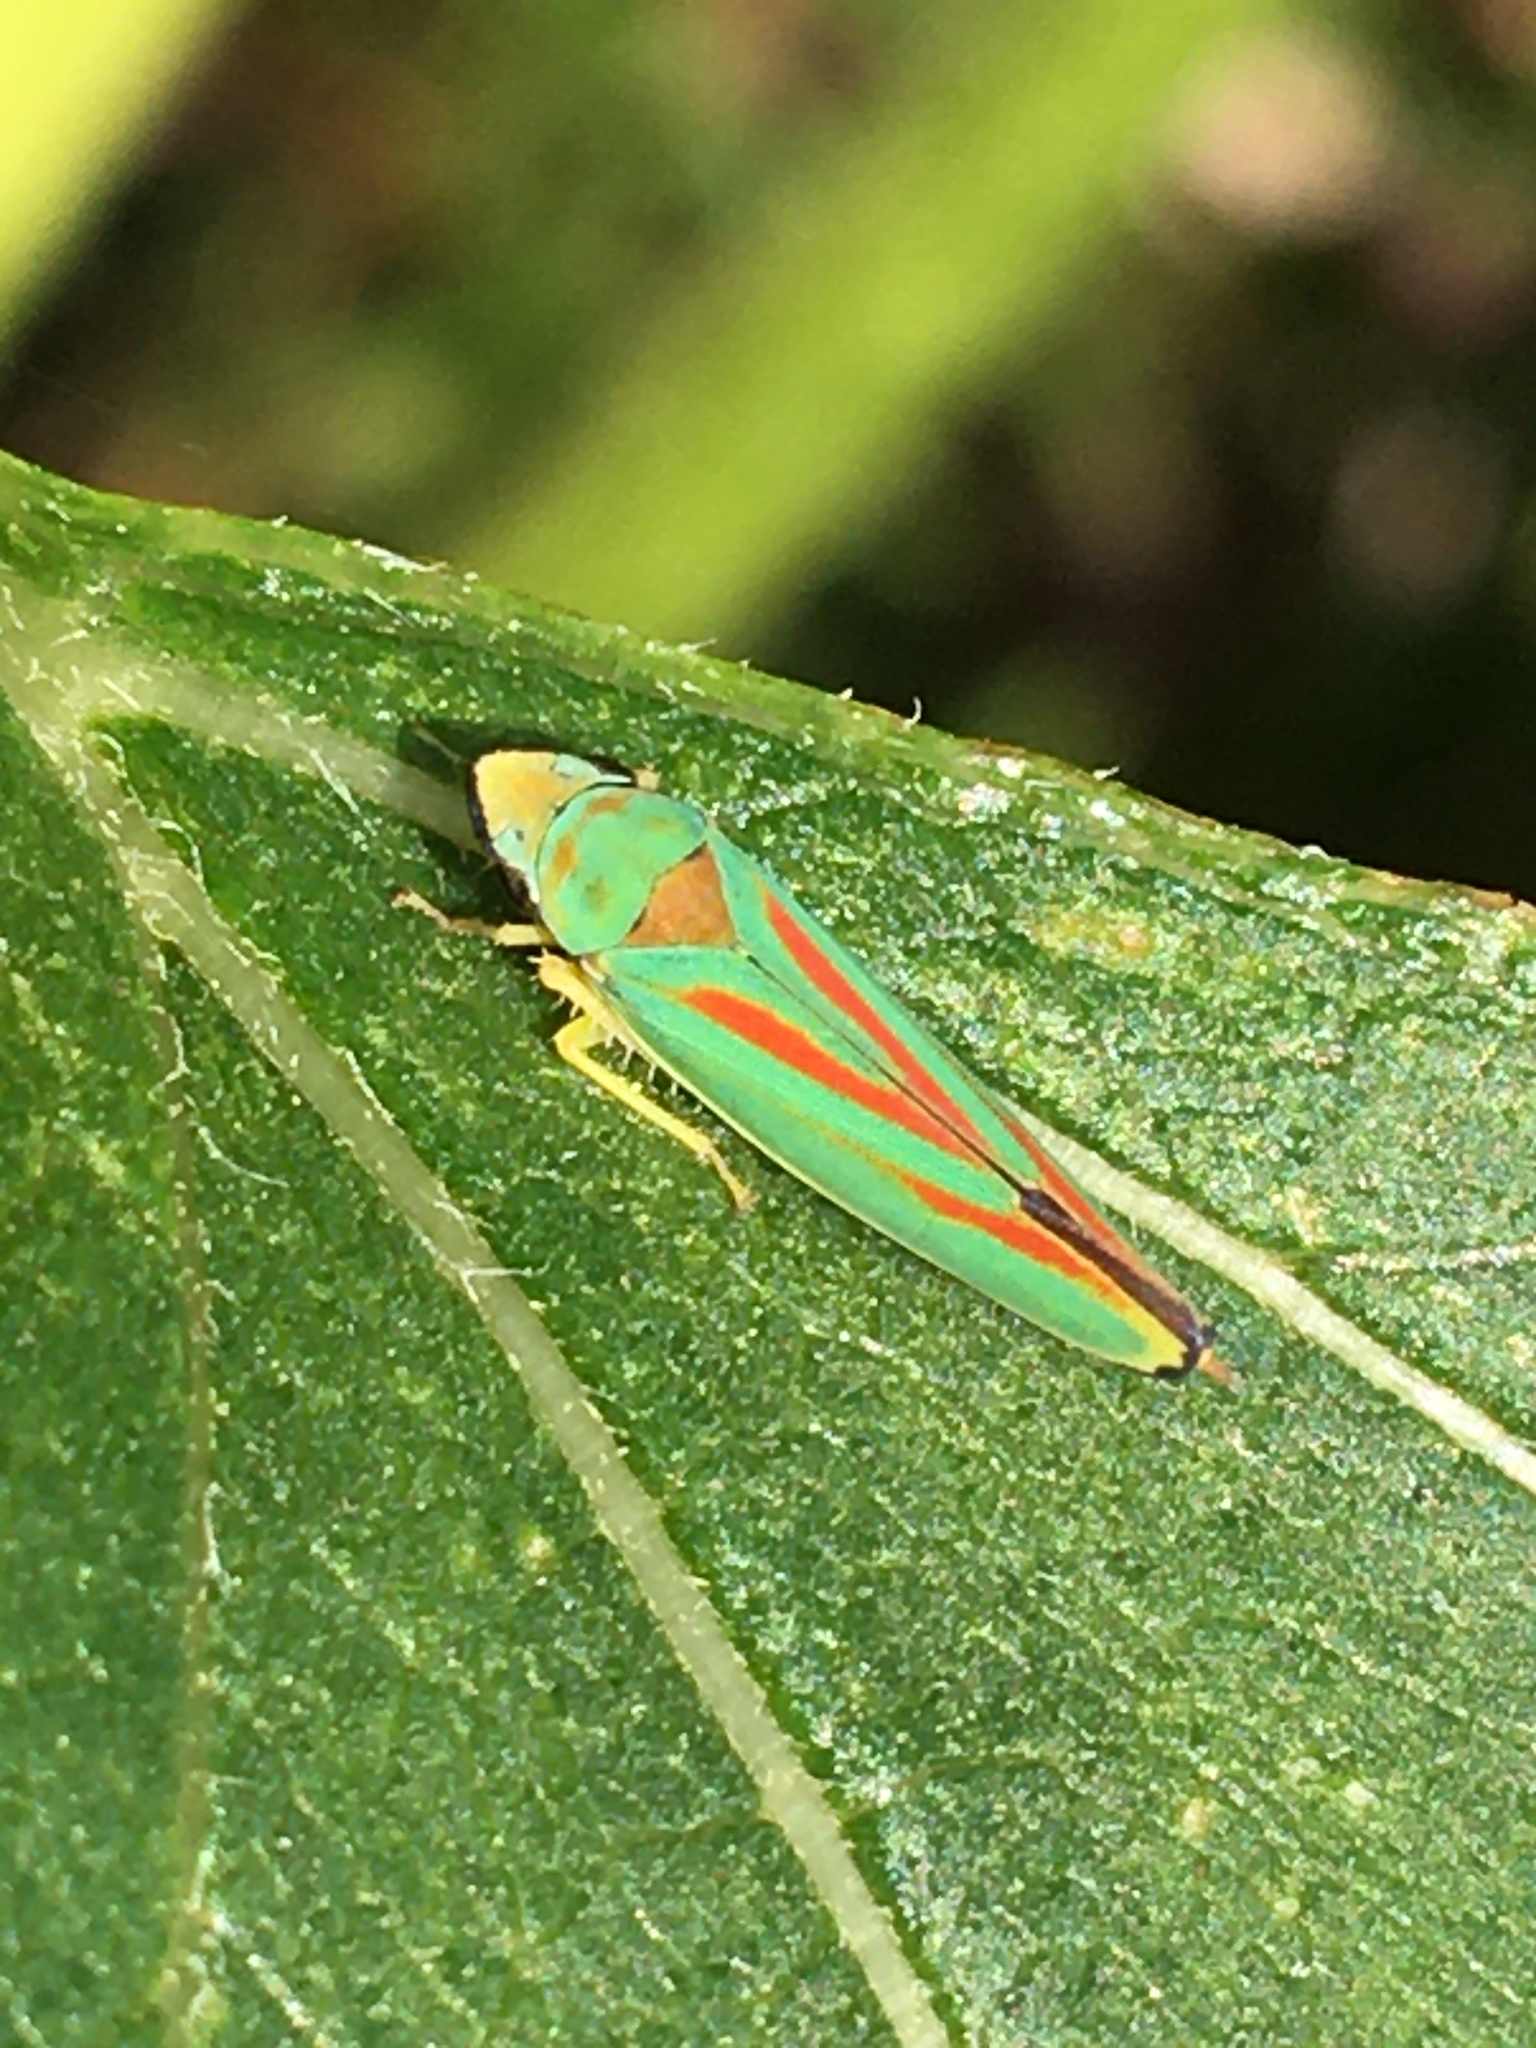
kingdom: Animalia
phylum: Arthropoda
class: Insecta
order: Hemiptera
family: Cicadellidae
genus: Graphocephala
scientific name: Graphocephala fennahi
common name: Rhododendron leafhopper
